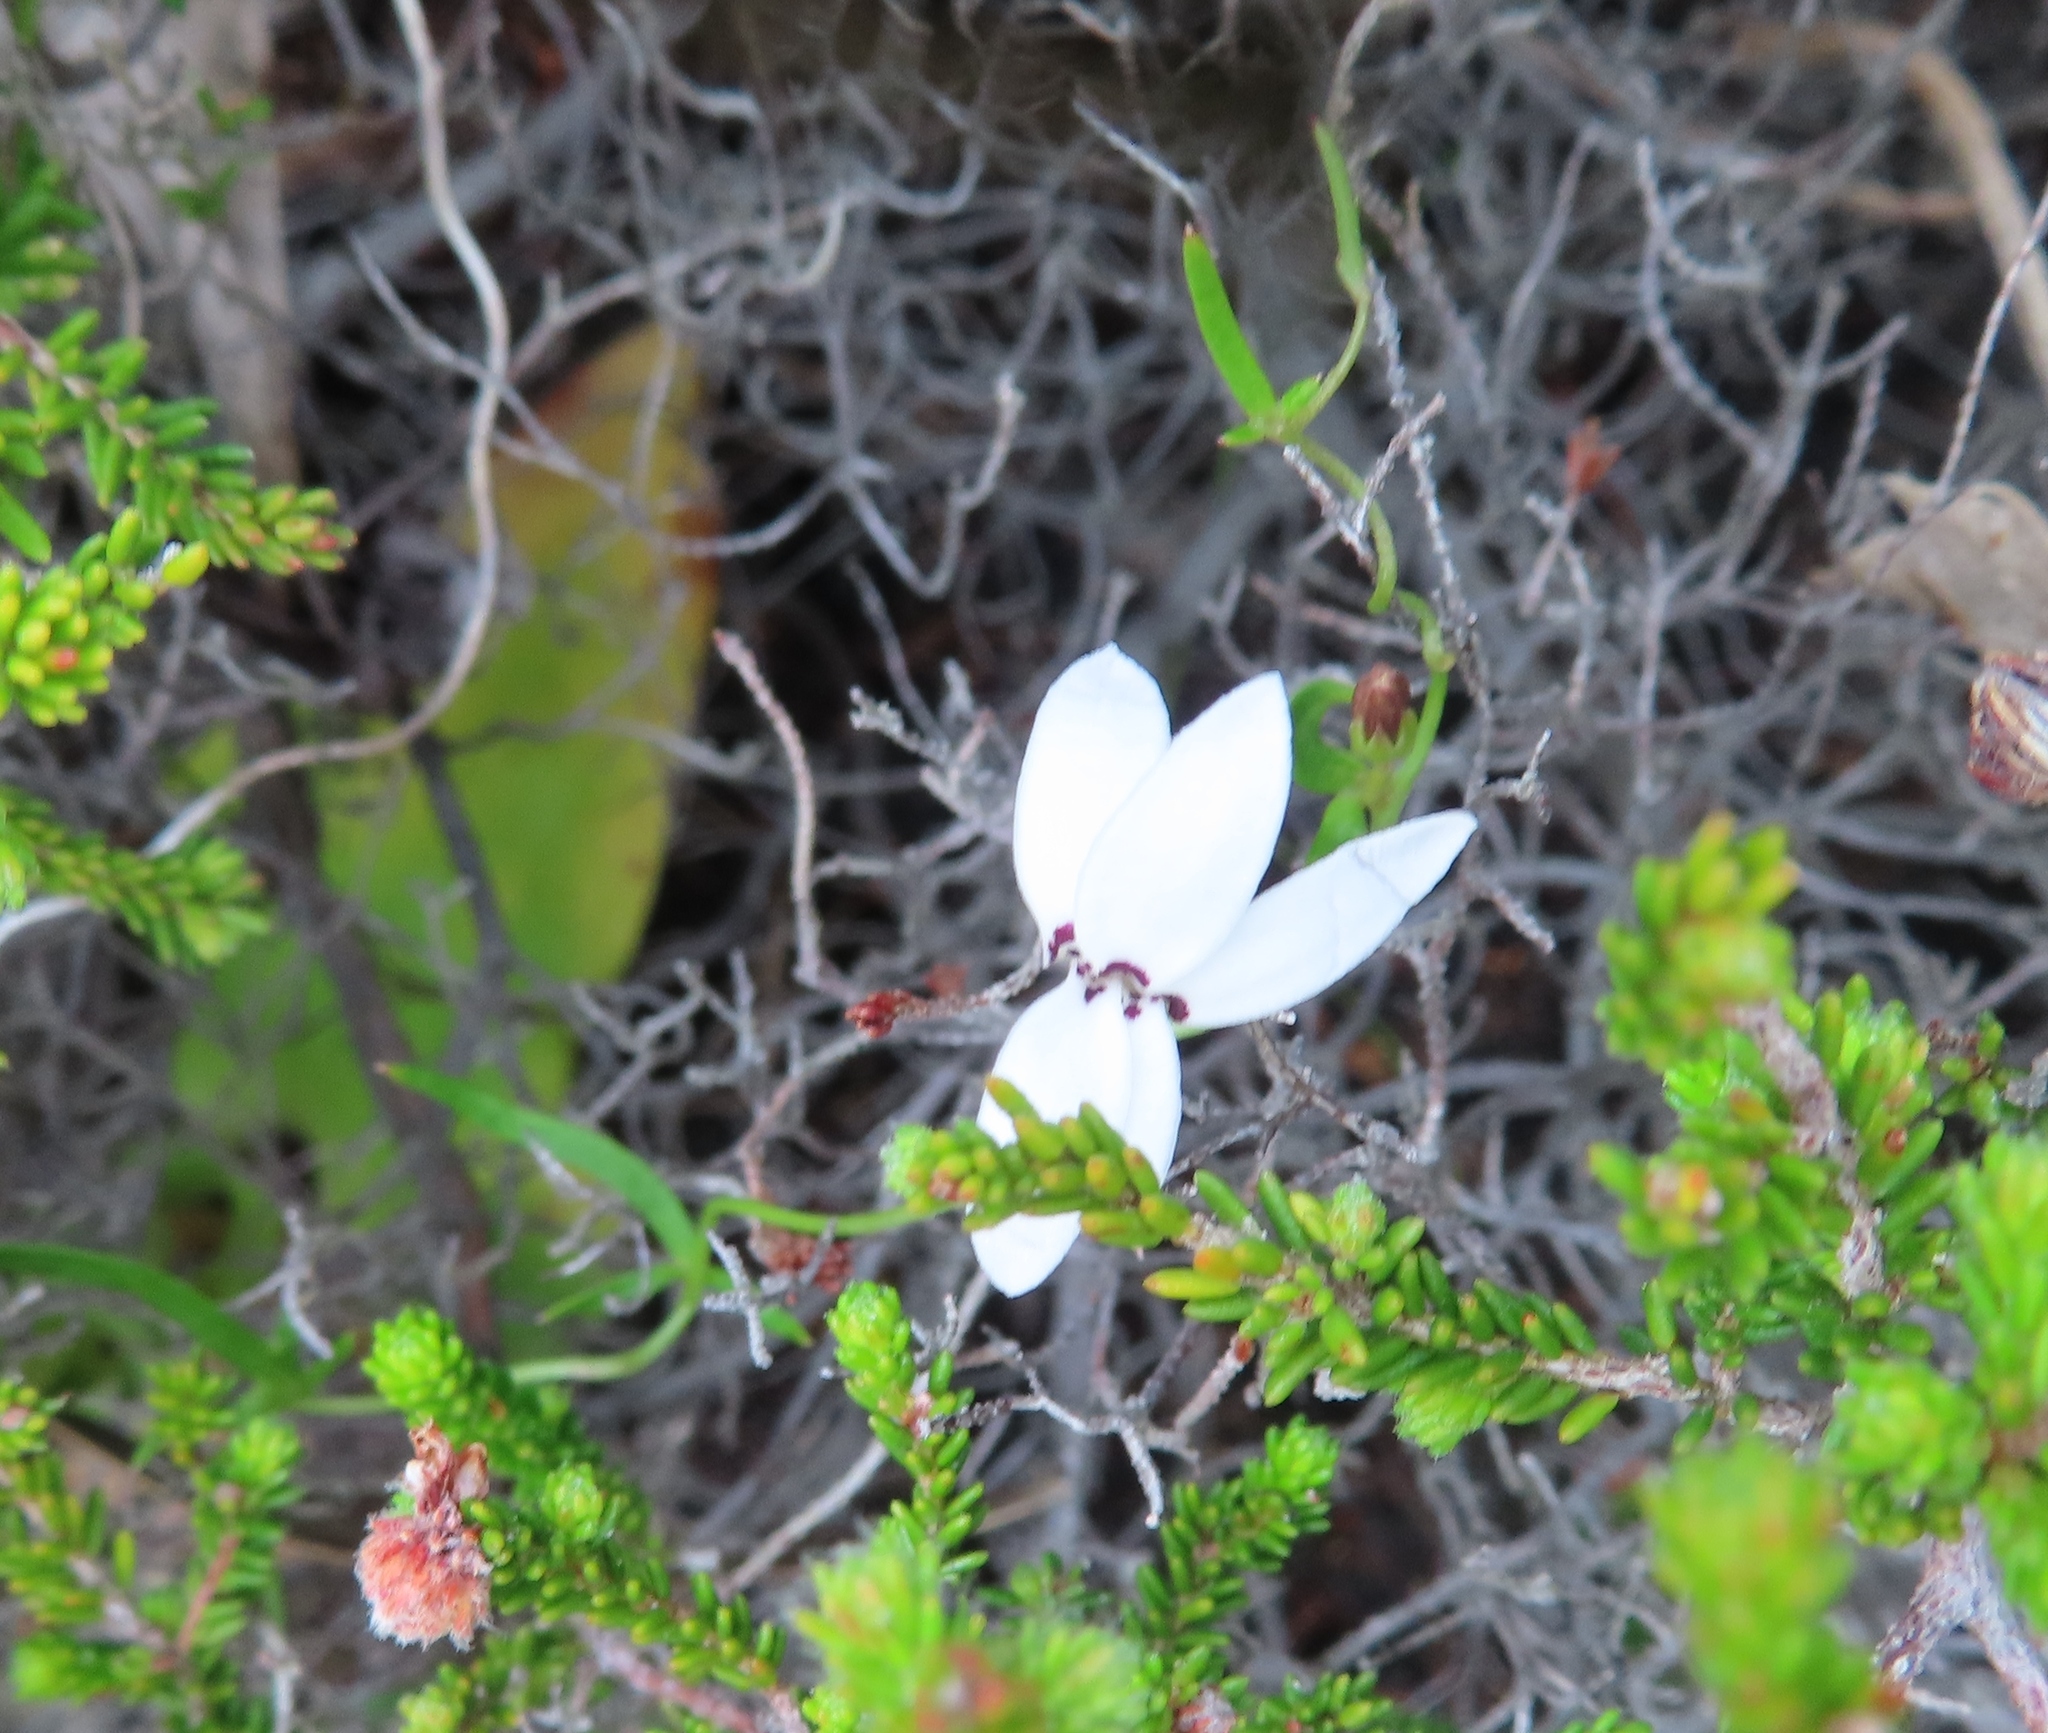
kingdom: Plantae
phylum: Tracheophyta
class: Magnoliopsida
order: Asterales
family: Campanulaceae
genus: Cyphia
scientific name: Cyphia volubilis
